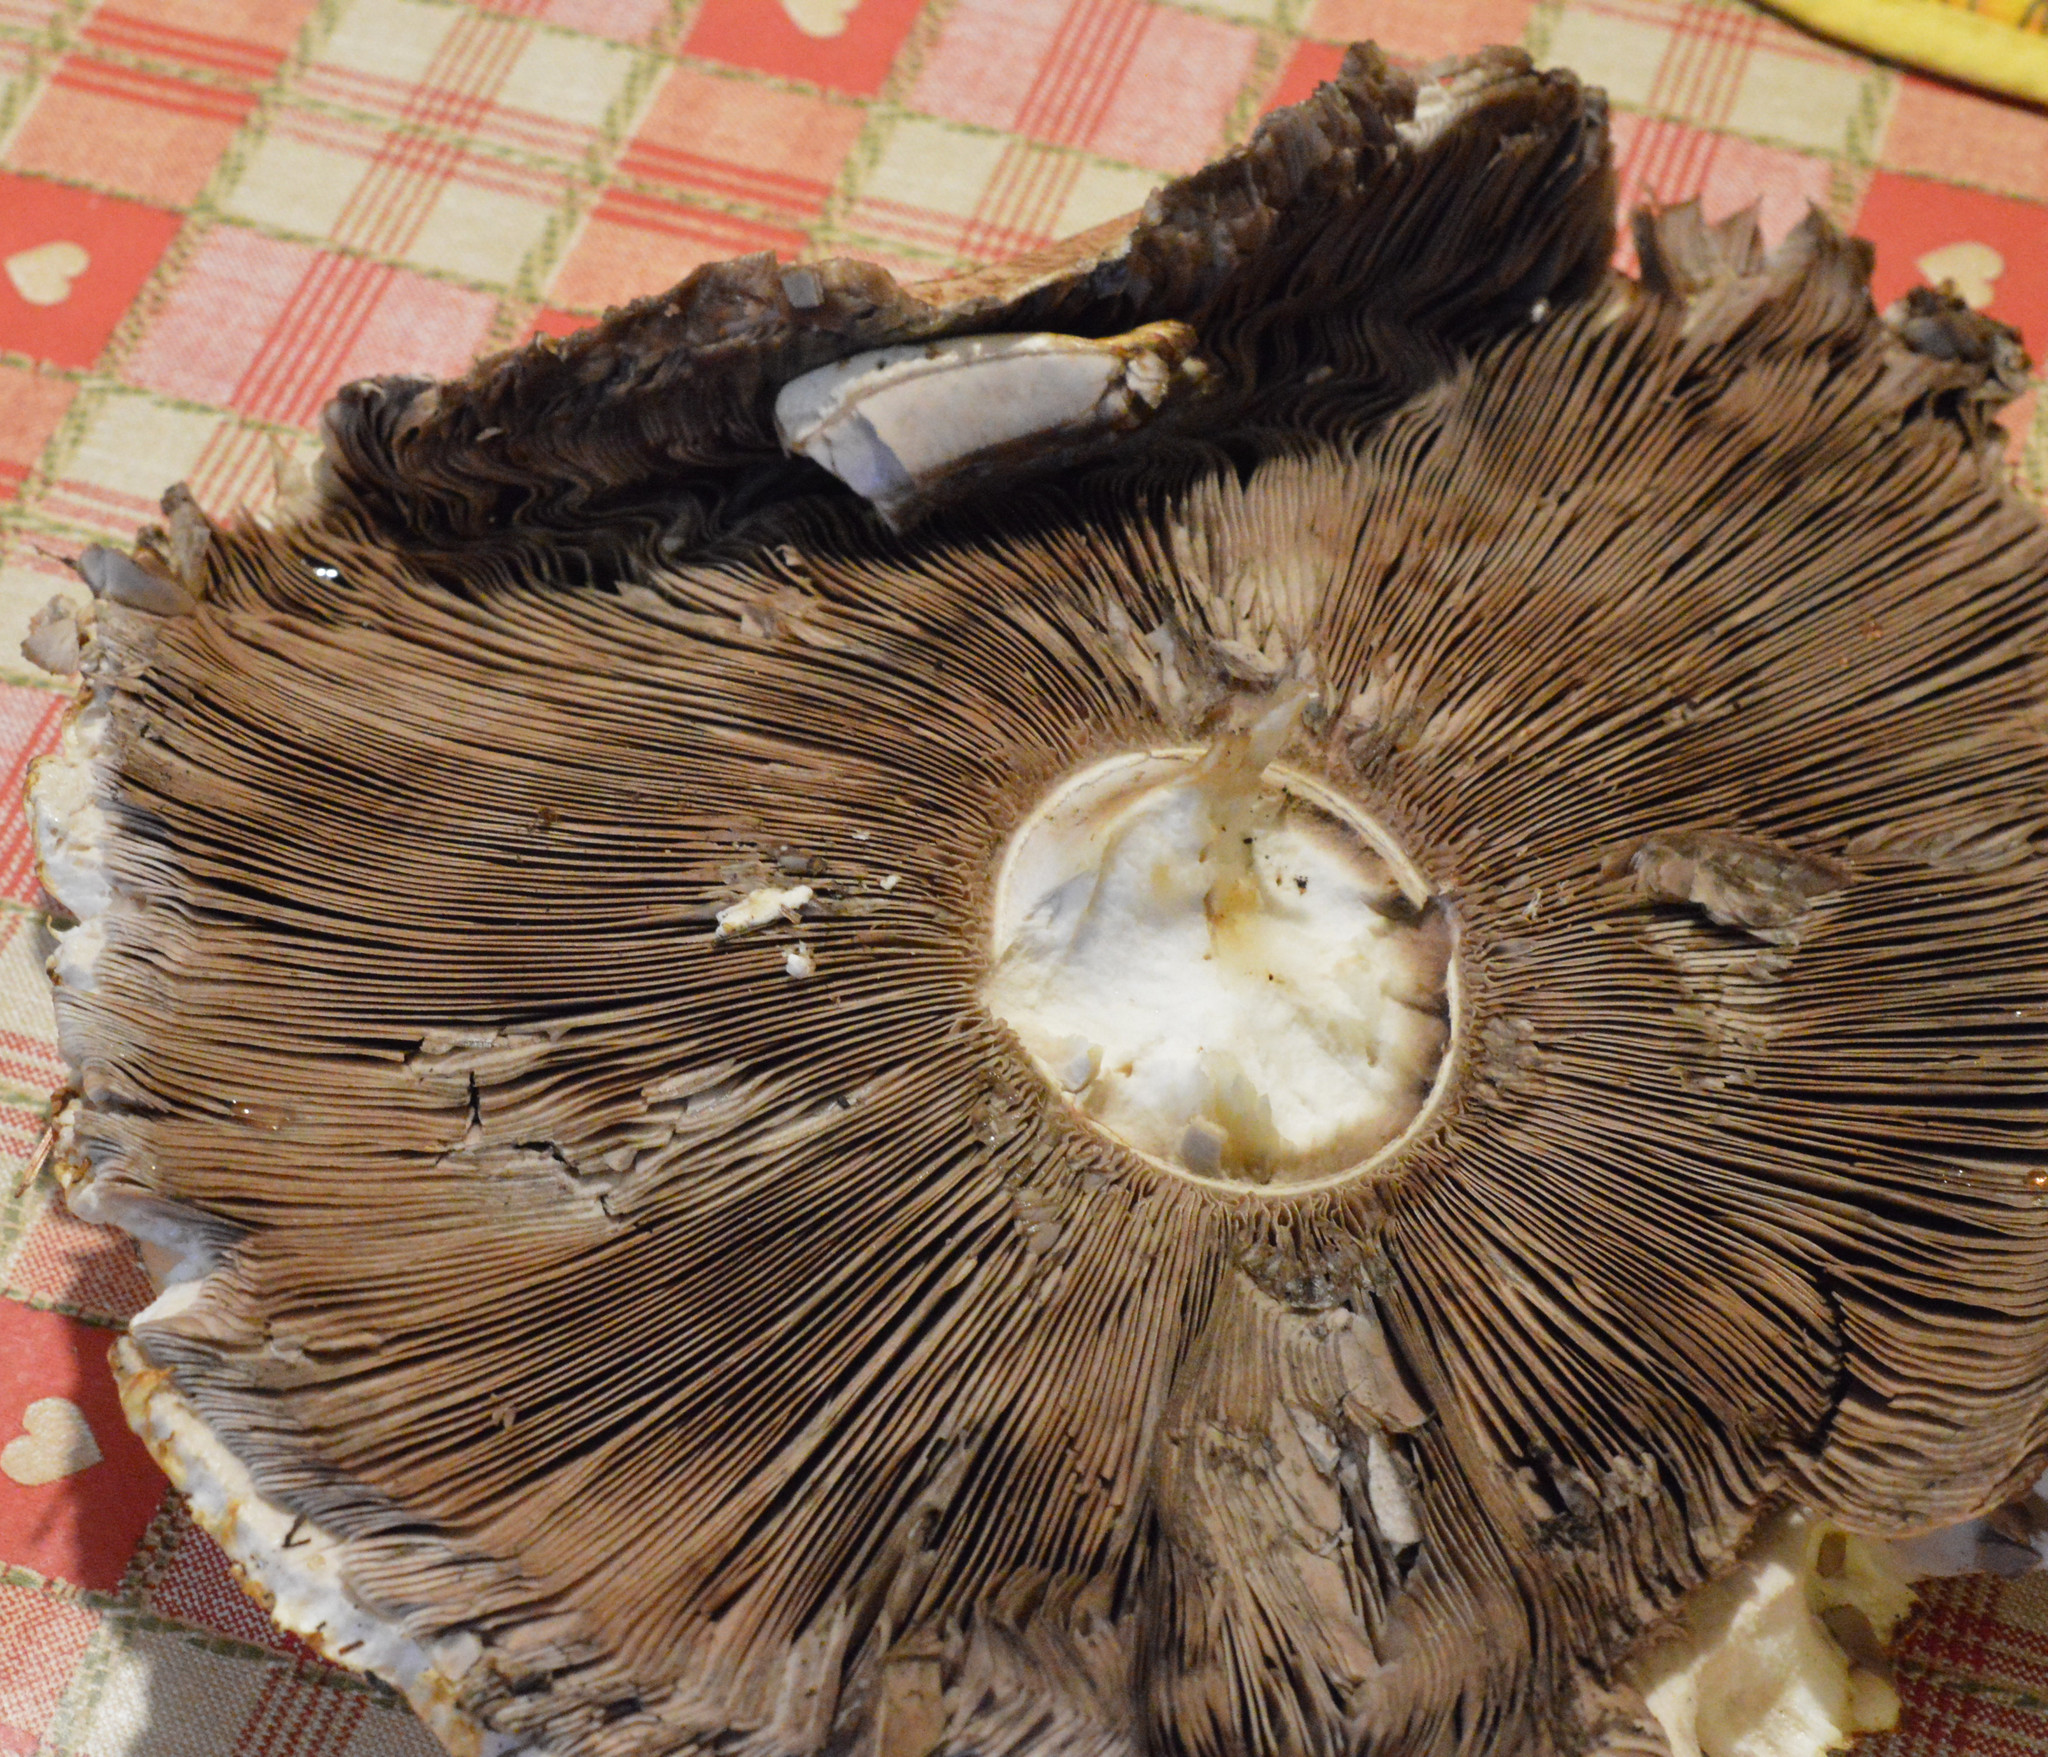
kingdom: Fungi
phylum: Basidiomycota
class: Agaricomycetes
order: Agaricales
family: Agaricaceae
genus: Agaricus
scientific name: Agaricus augustus
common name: Prince
